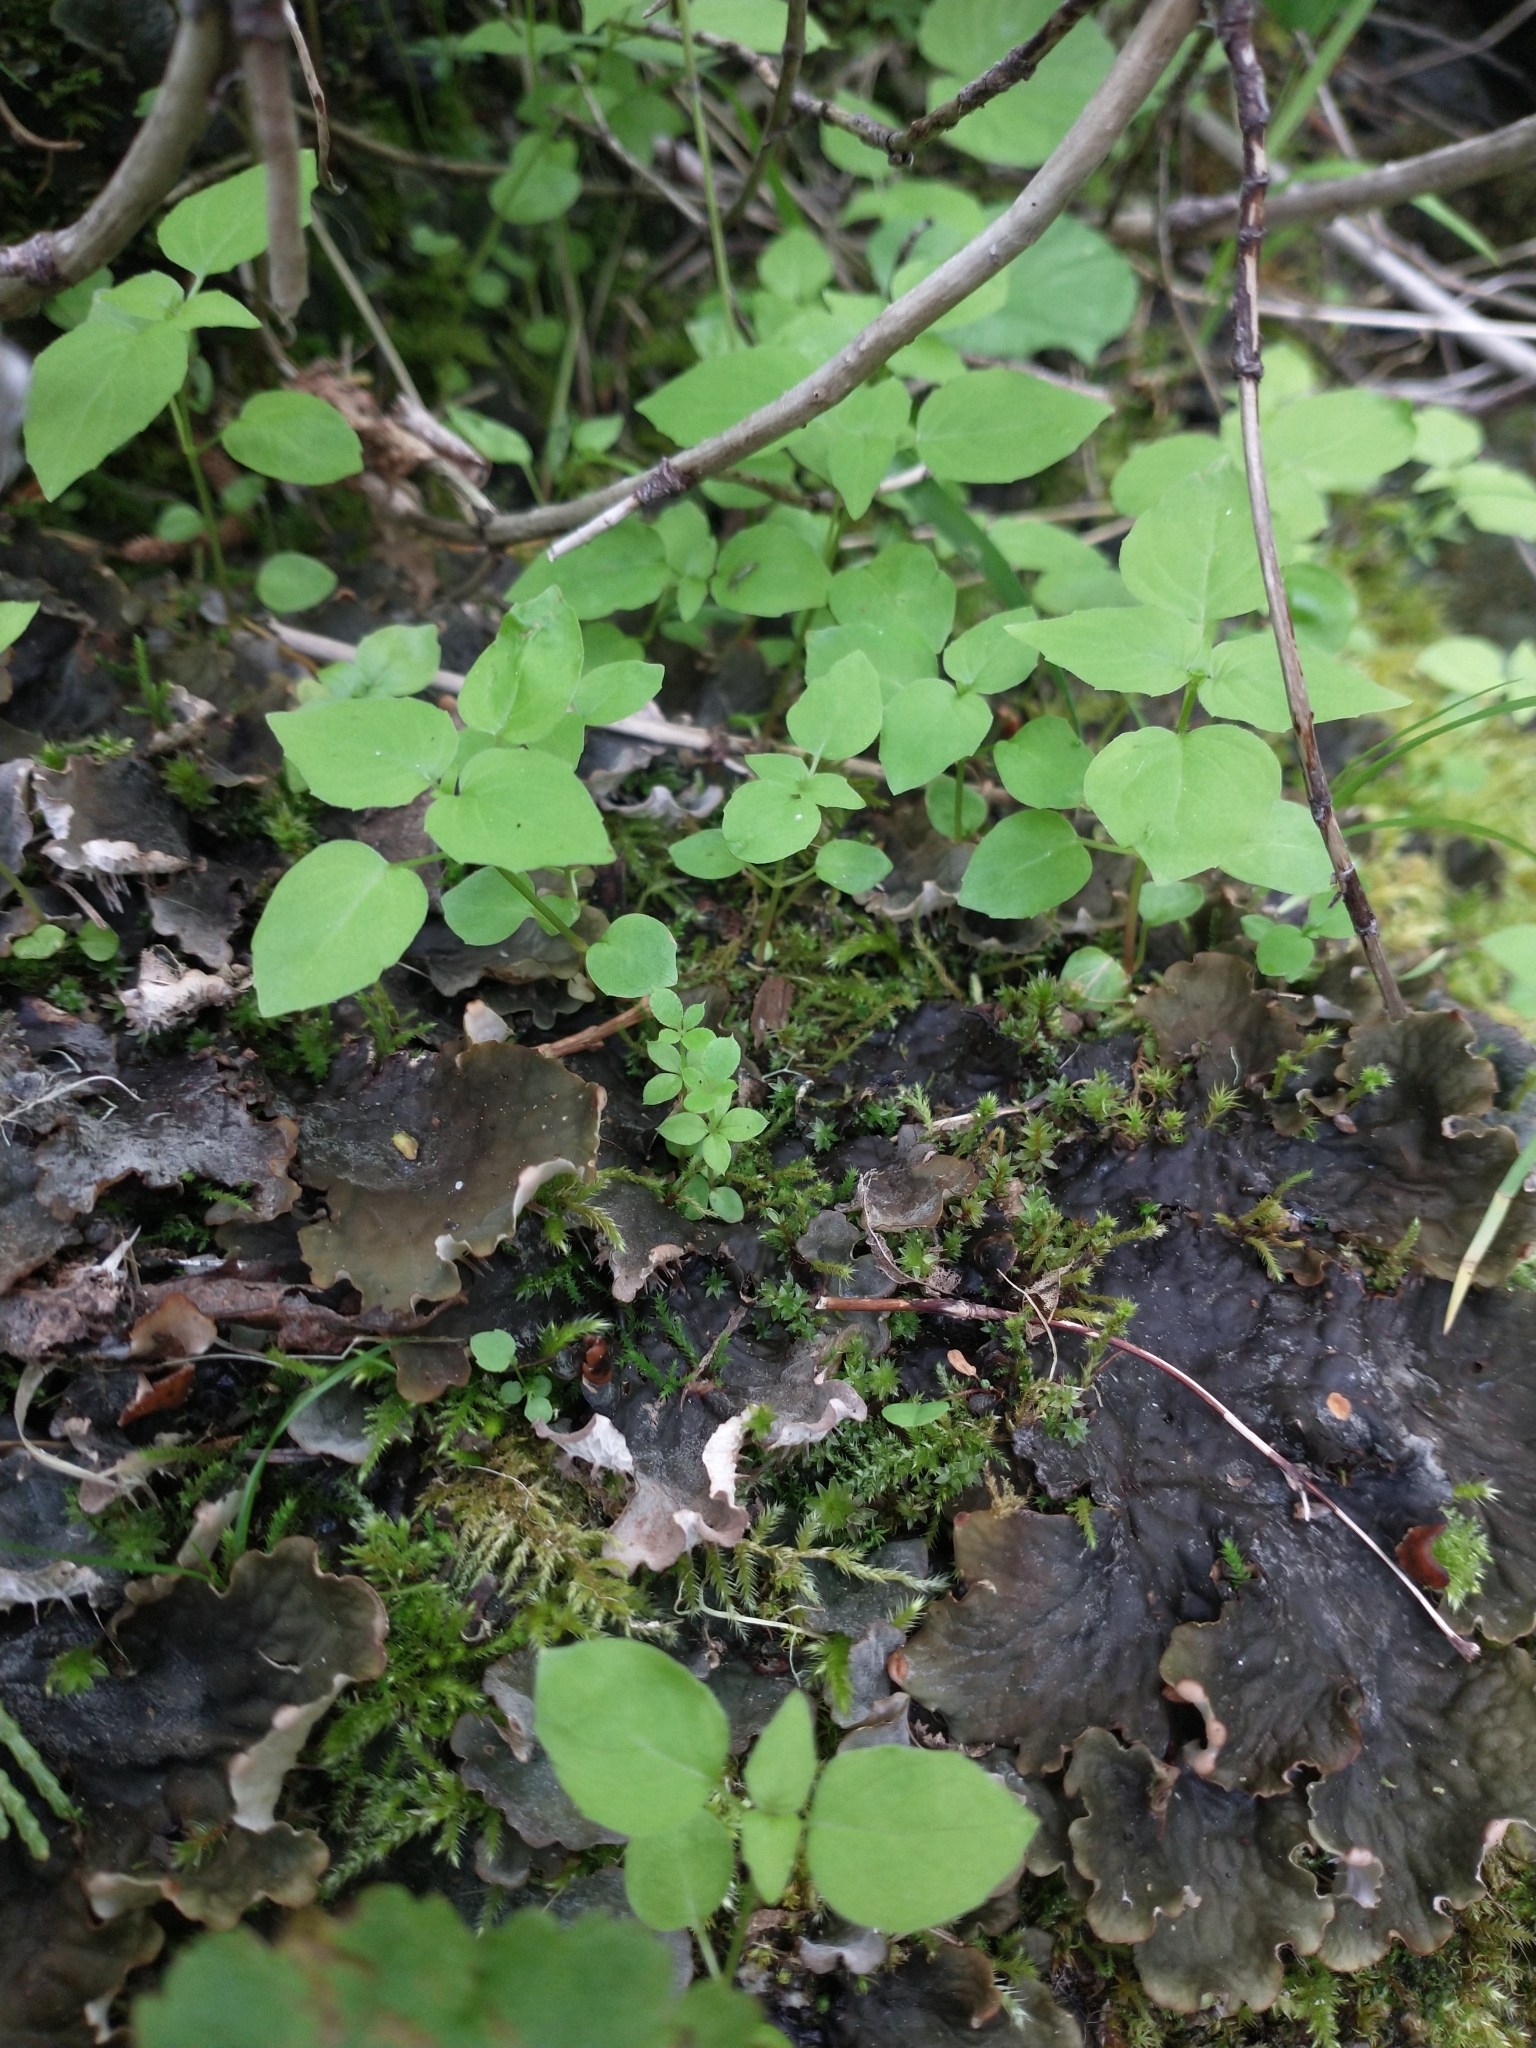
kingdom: Plantae
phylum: Tracheophyta
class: Magnoliopsida
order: Myrtales
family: Onagraceae
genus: Circaea
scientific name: Circaea alpina
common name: Alpine enchanter's-nightshade
